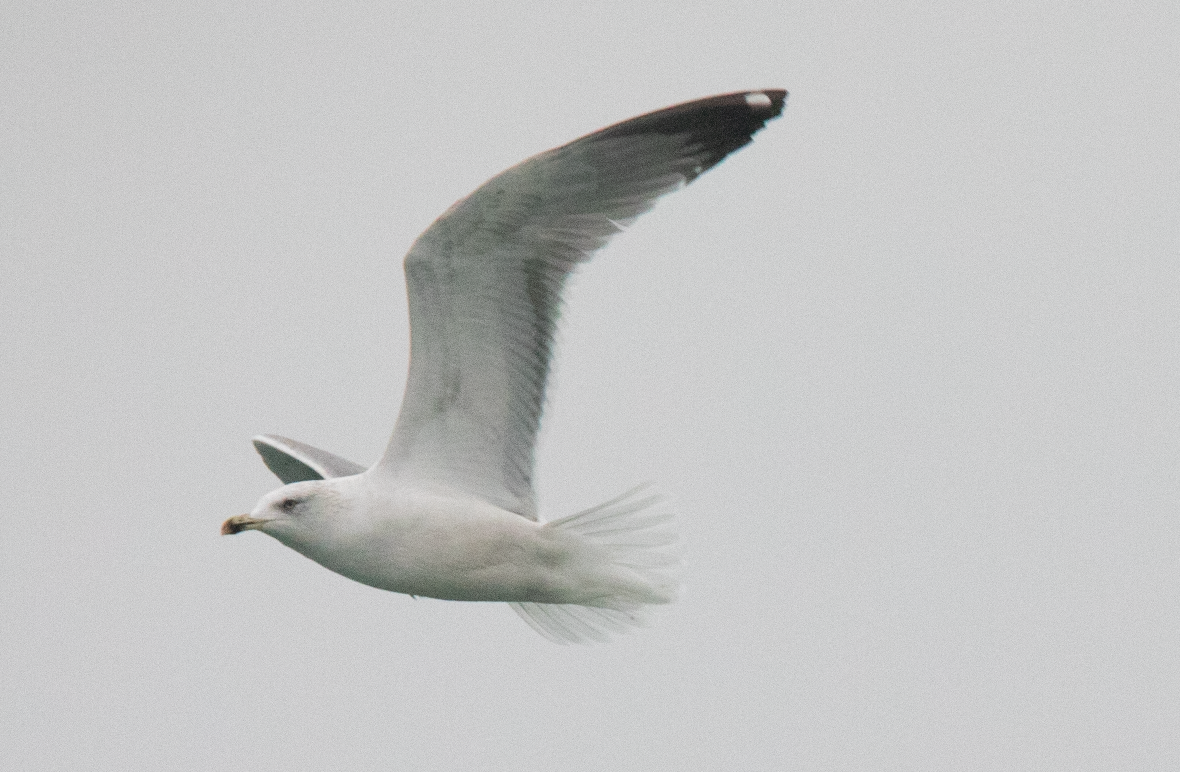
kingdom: Animalia
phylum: Chordata
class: Aves
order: Charadriiformes
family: Laridae
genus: Larus
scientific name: Larus michahellis
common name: Yellow-legged gull
